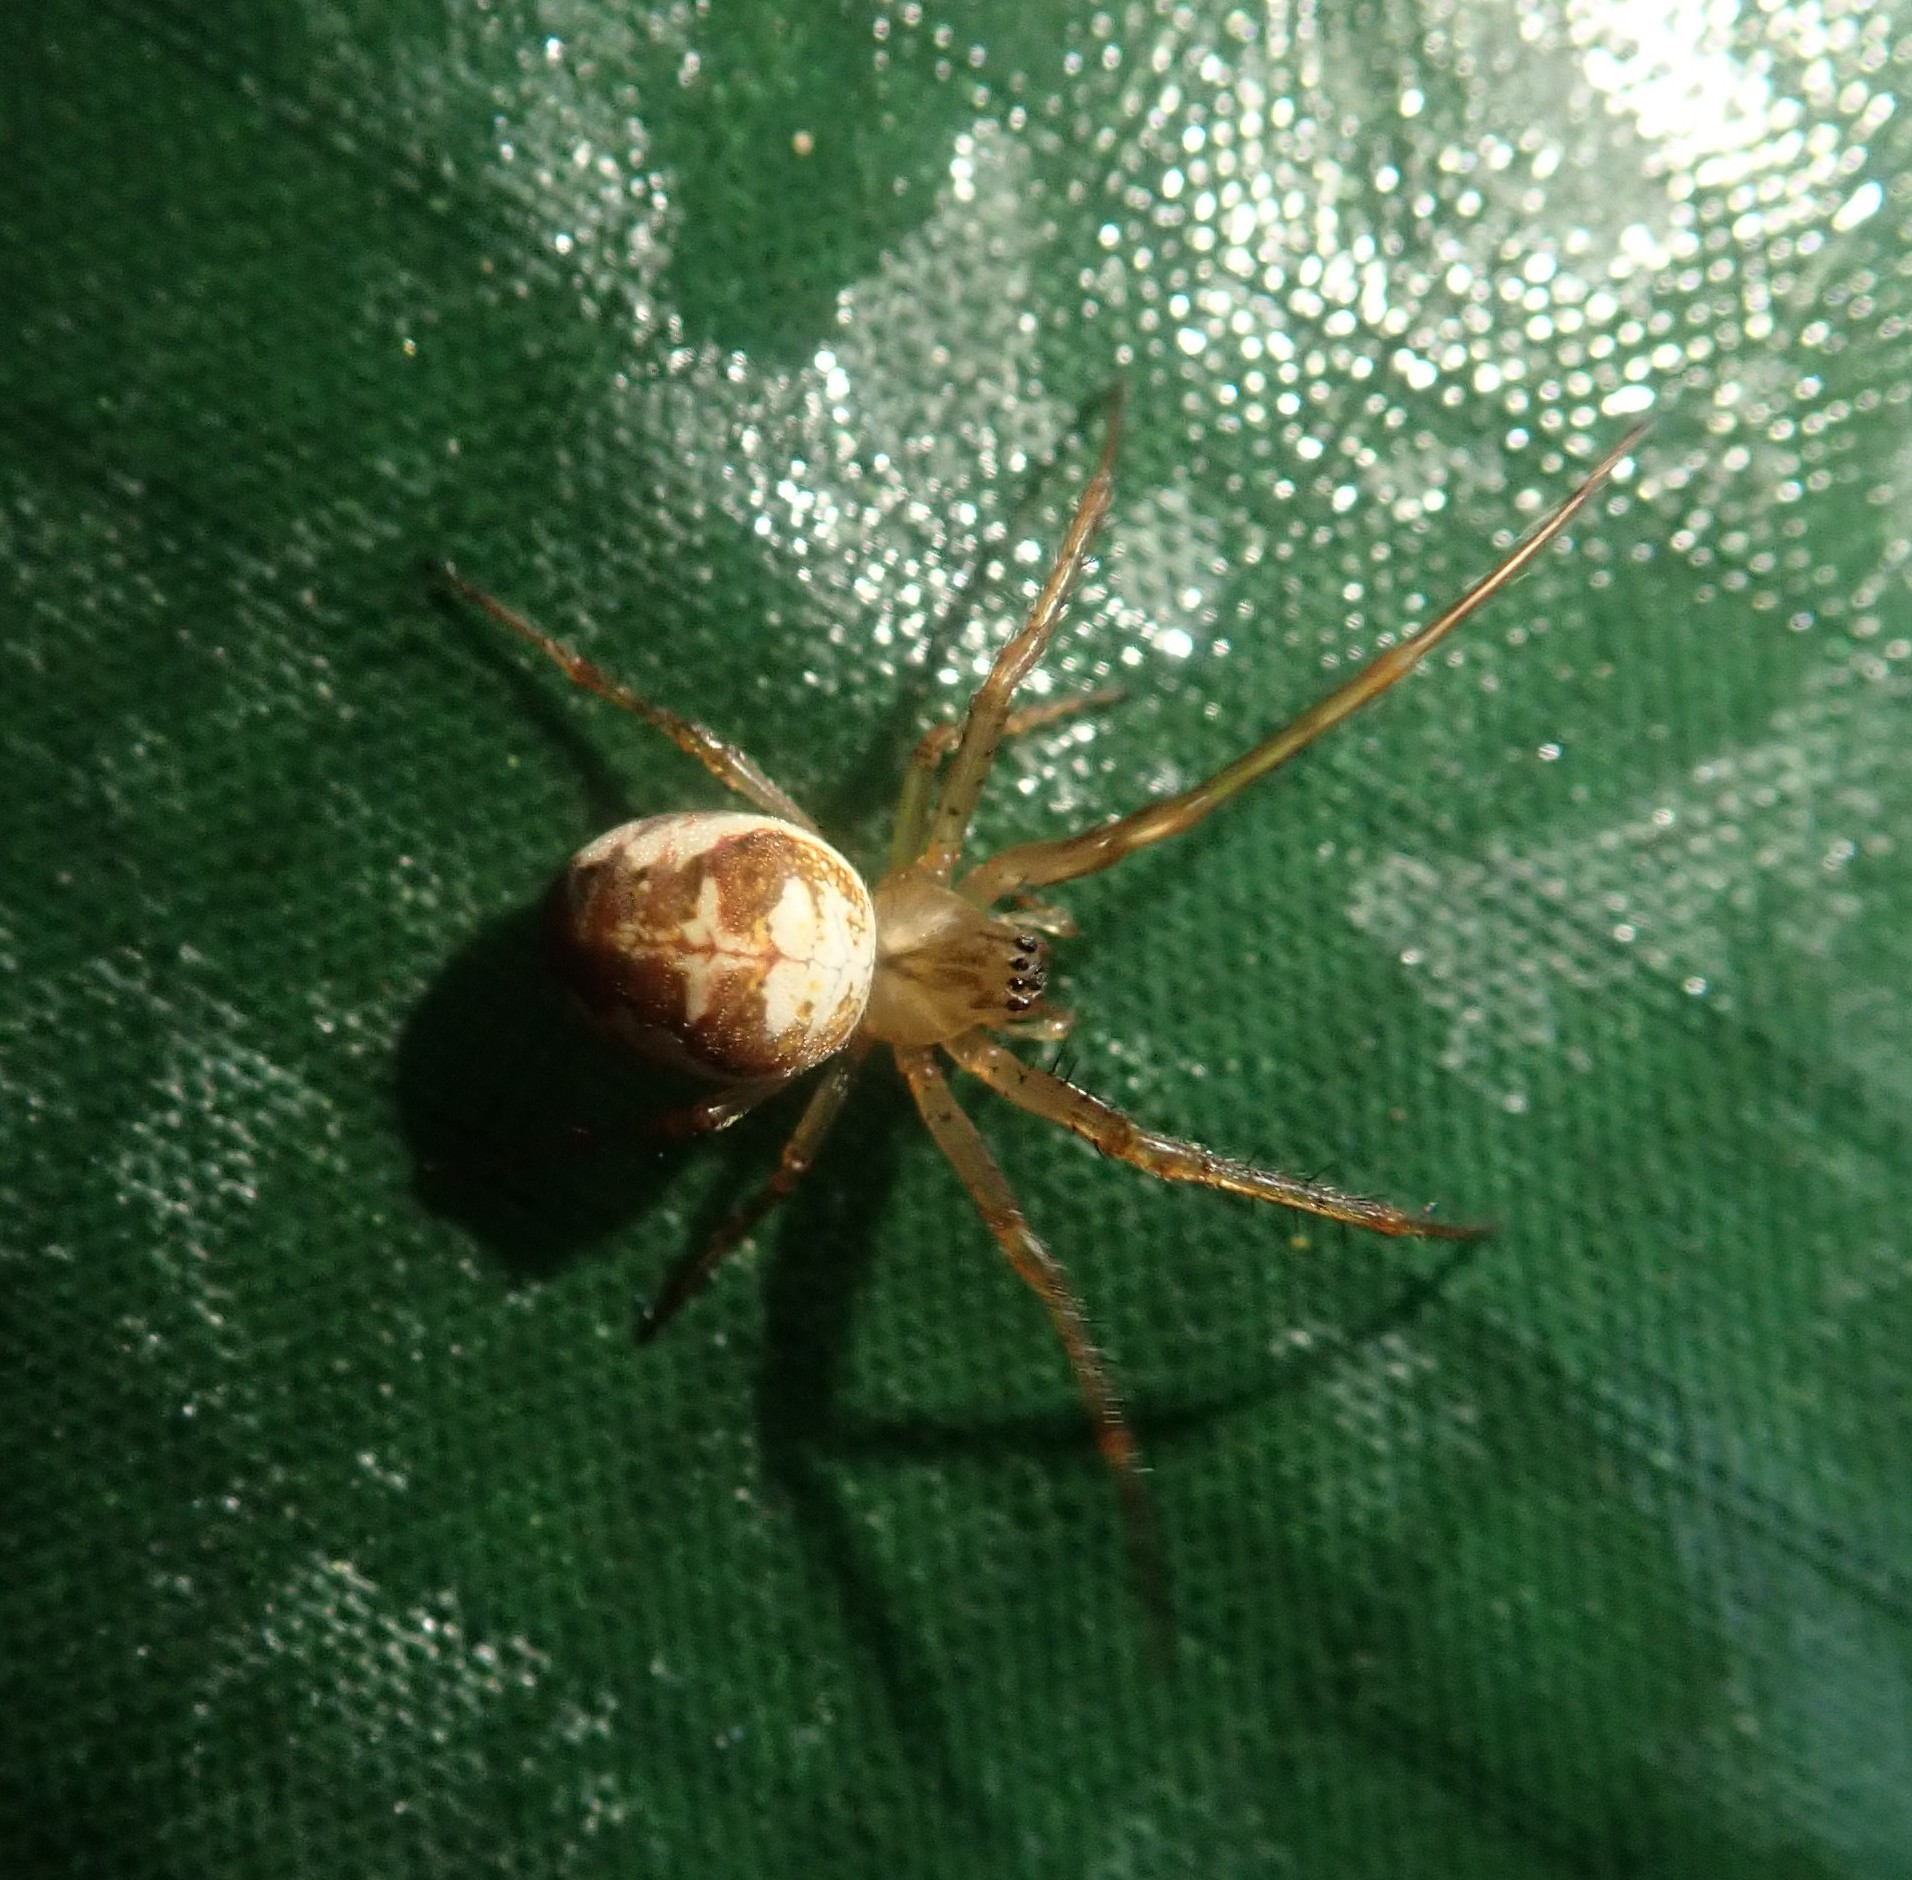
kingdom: Animalia
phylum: Arthropoda
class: Arachnida
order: Araneae
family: Tetragnathidae
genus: Metellina
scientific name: Metellina
